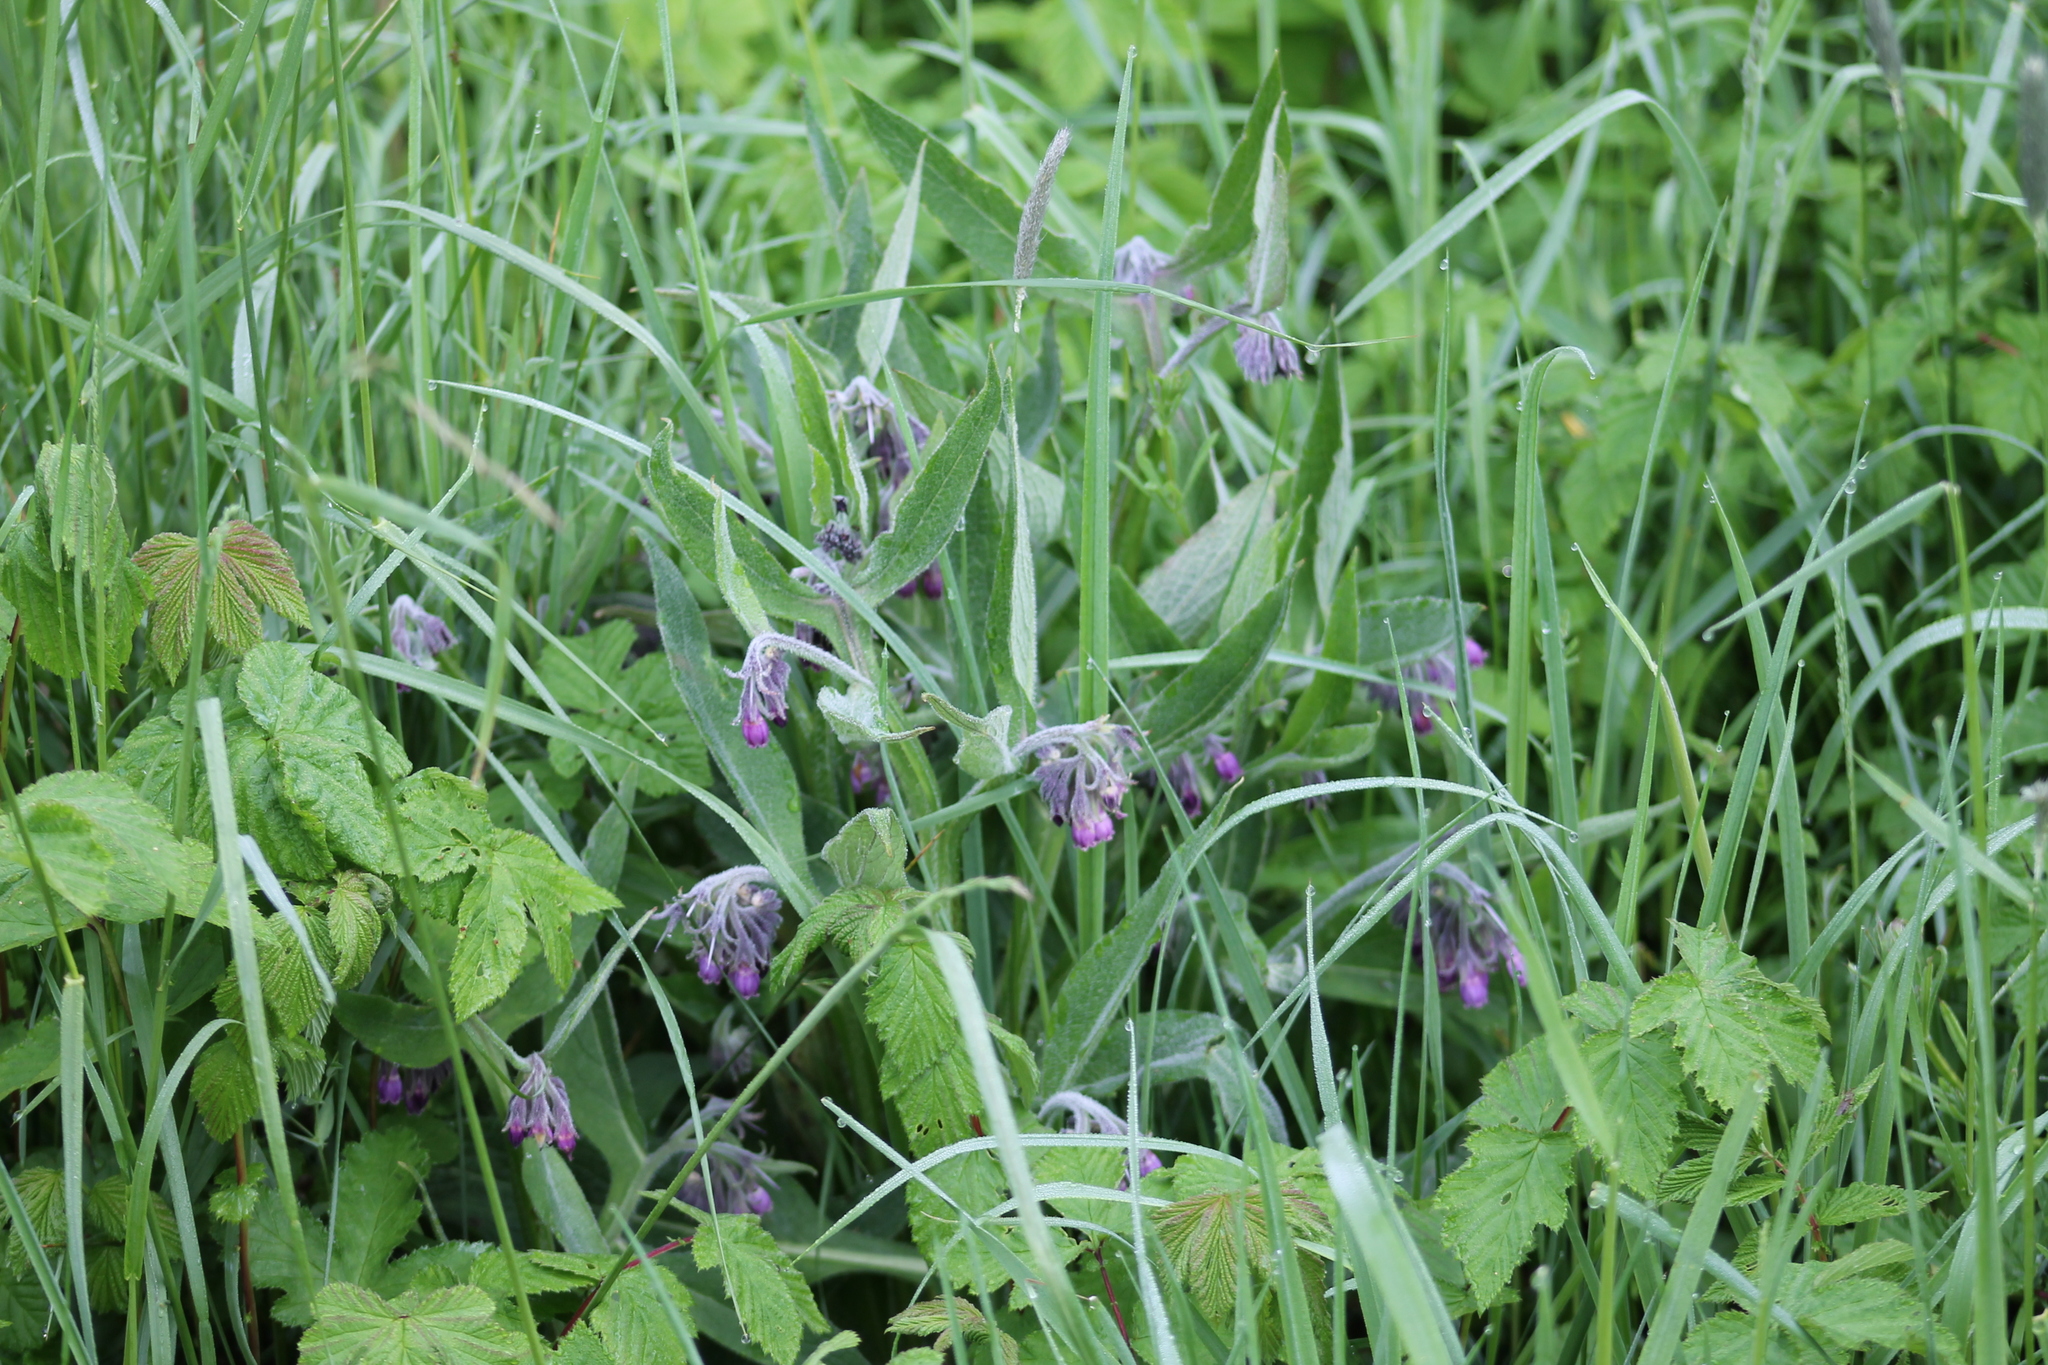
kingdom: Plantae
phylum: Tracheophyta
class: Magnoliopsida
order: Boraginales
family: Boraginaceae
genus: Symphytum
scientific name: Symphytum officinale
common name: Common comfrey
